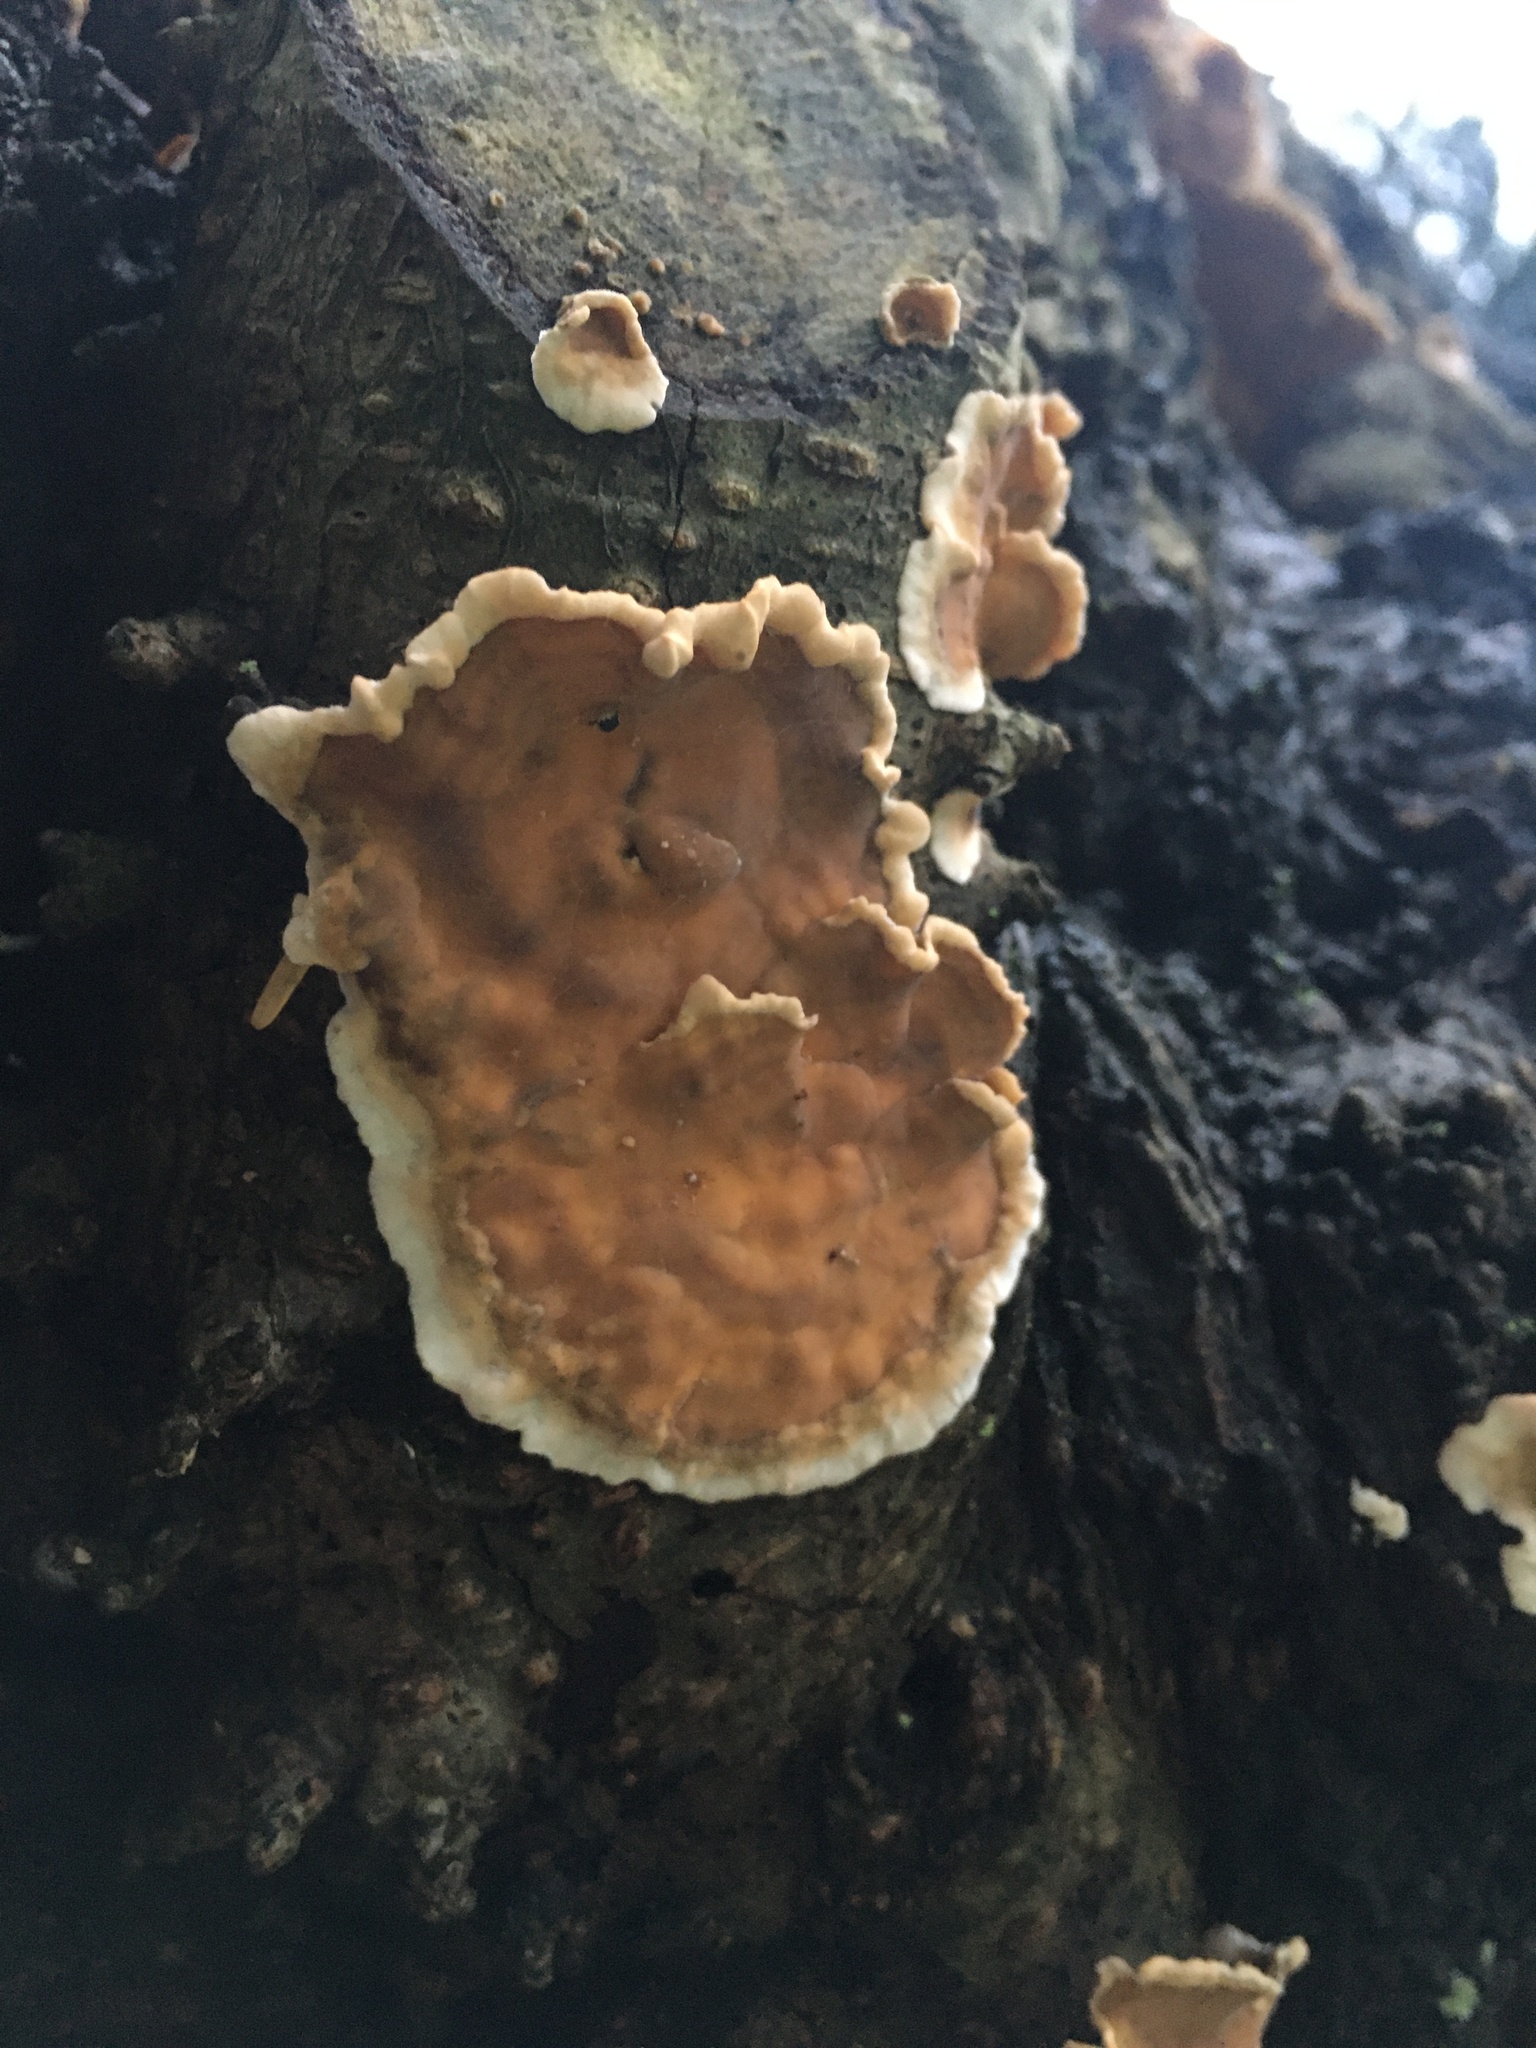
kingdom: Fungi
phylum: Basidiomycota
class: Agaricomycetes
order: Russulales
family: Stereaceae
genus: Stereum
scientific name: Stereum complicatum
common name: Crowded parchment
